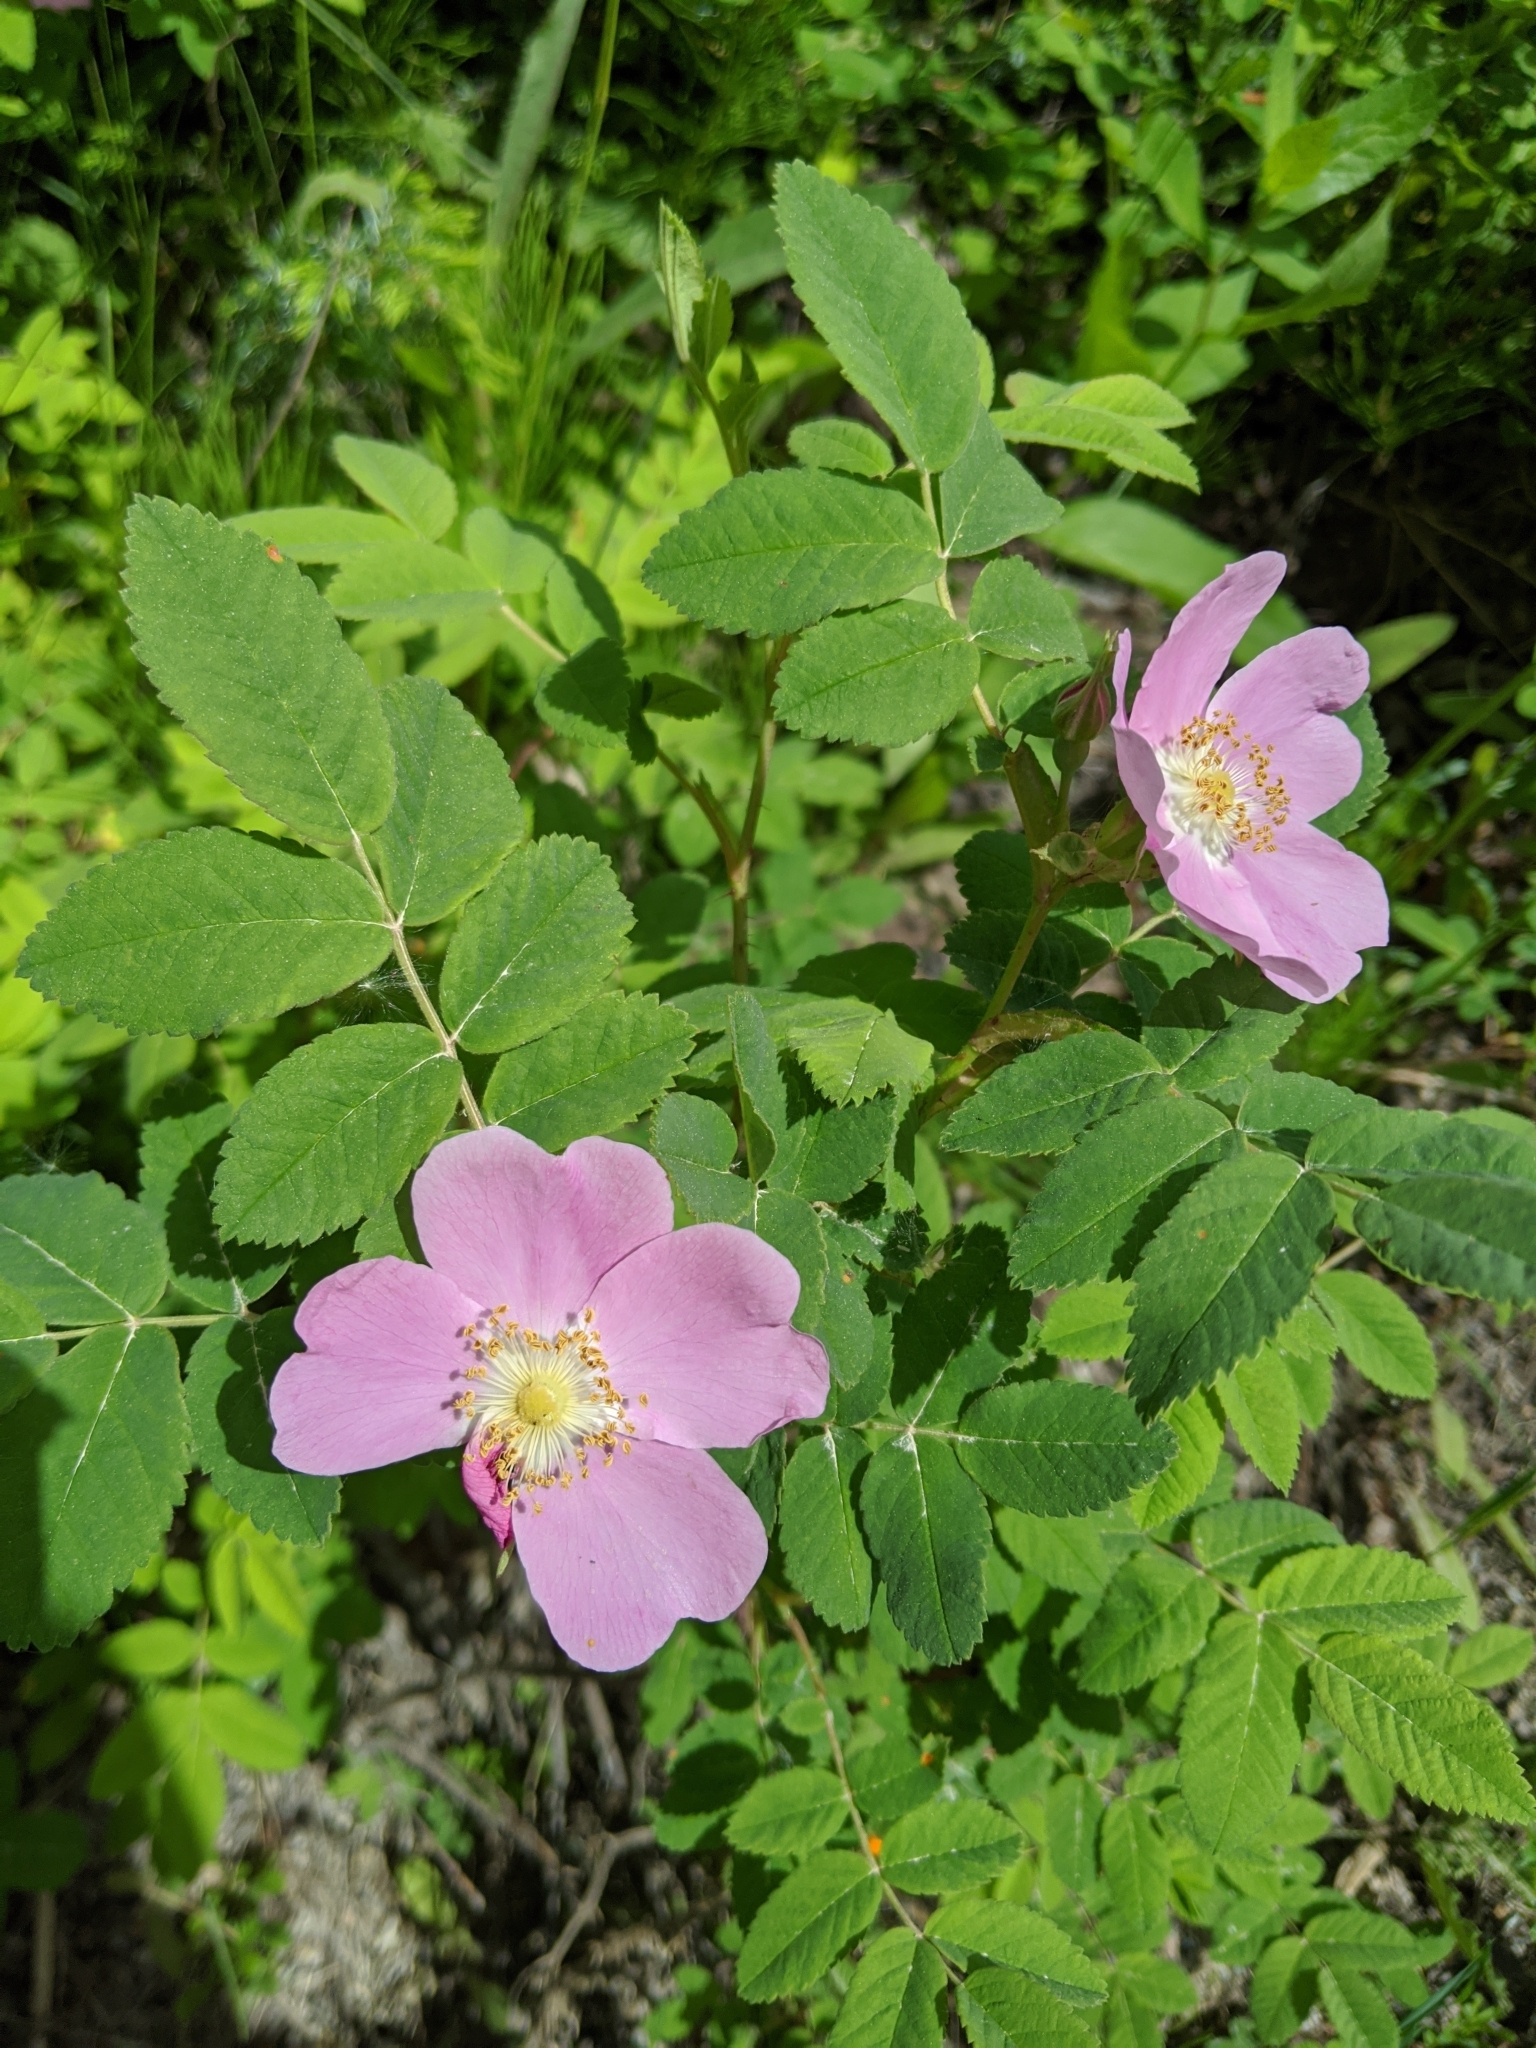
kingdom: Plantae
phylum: Tracheophyta
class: Magnoliopsida
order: Rosales
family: Rosaceae
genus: Rosa
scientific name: Rosa acicularis
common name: Prickly rose
